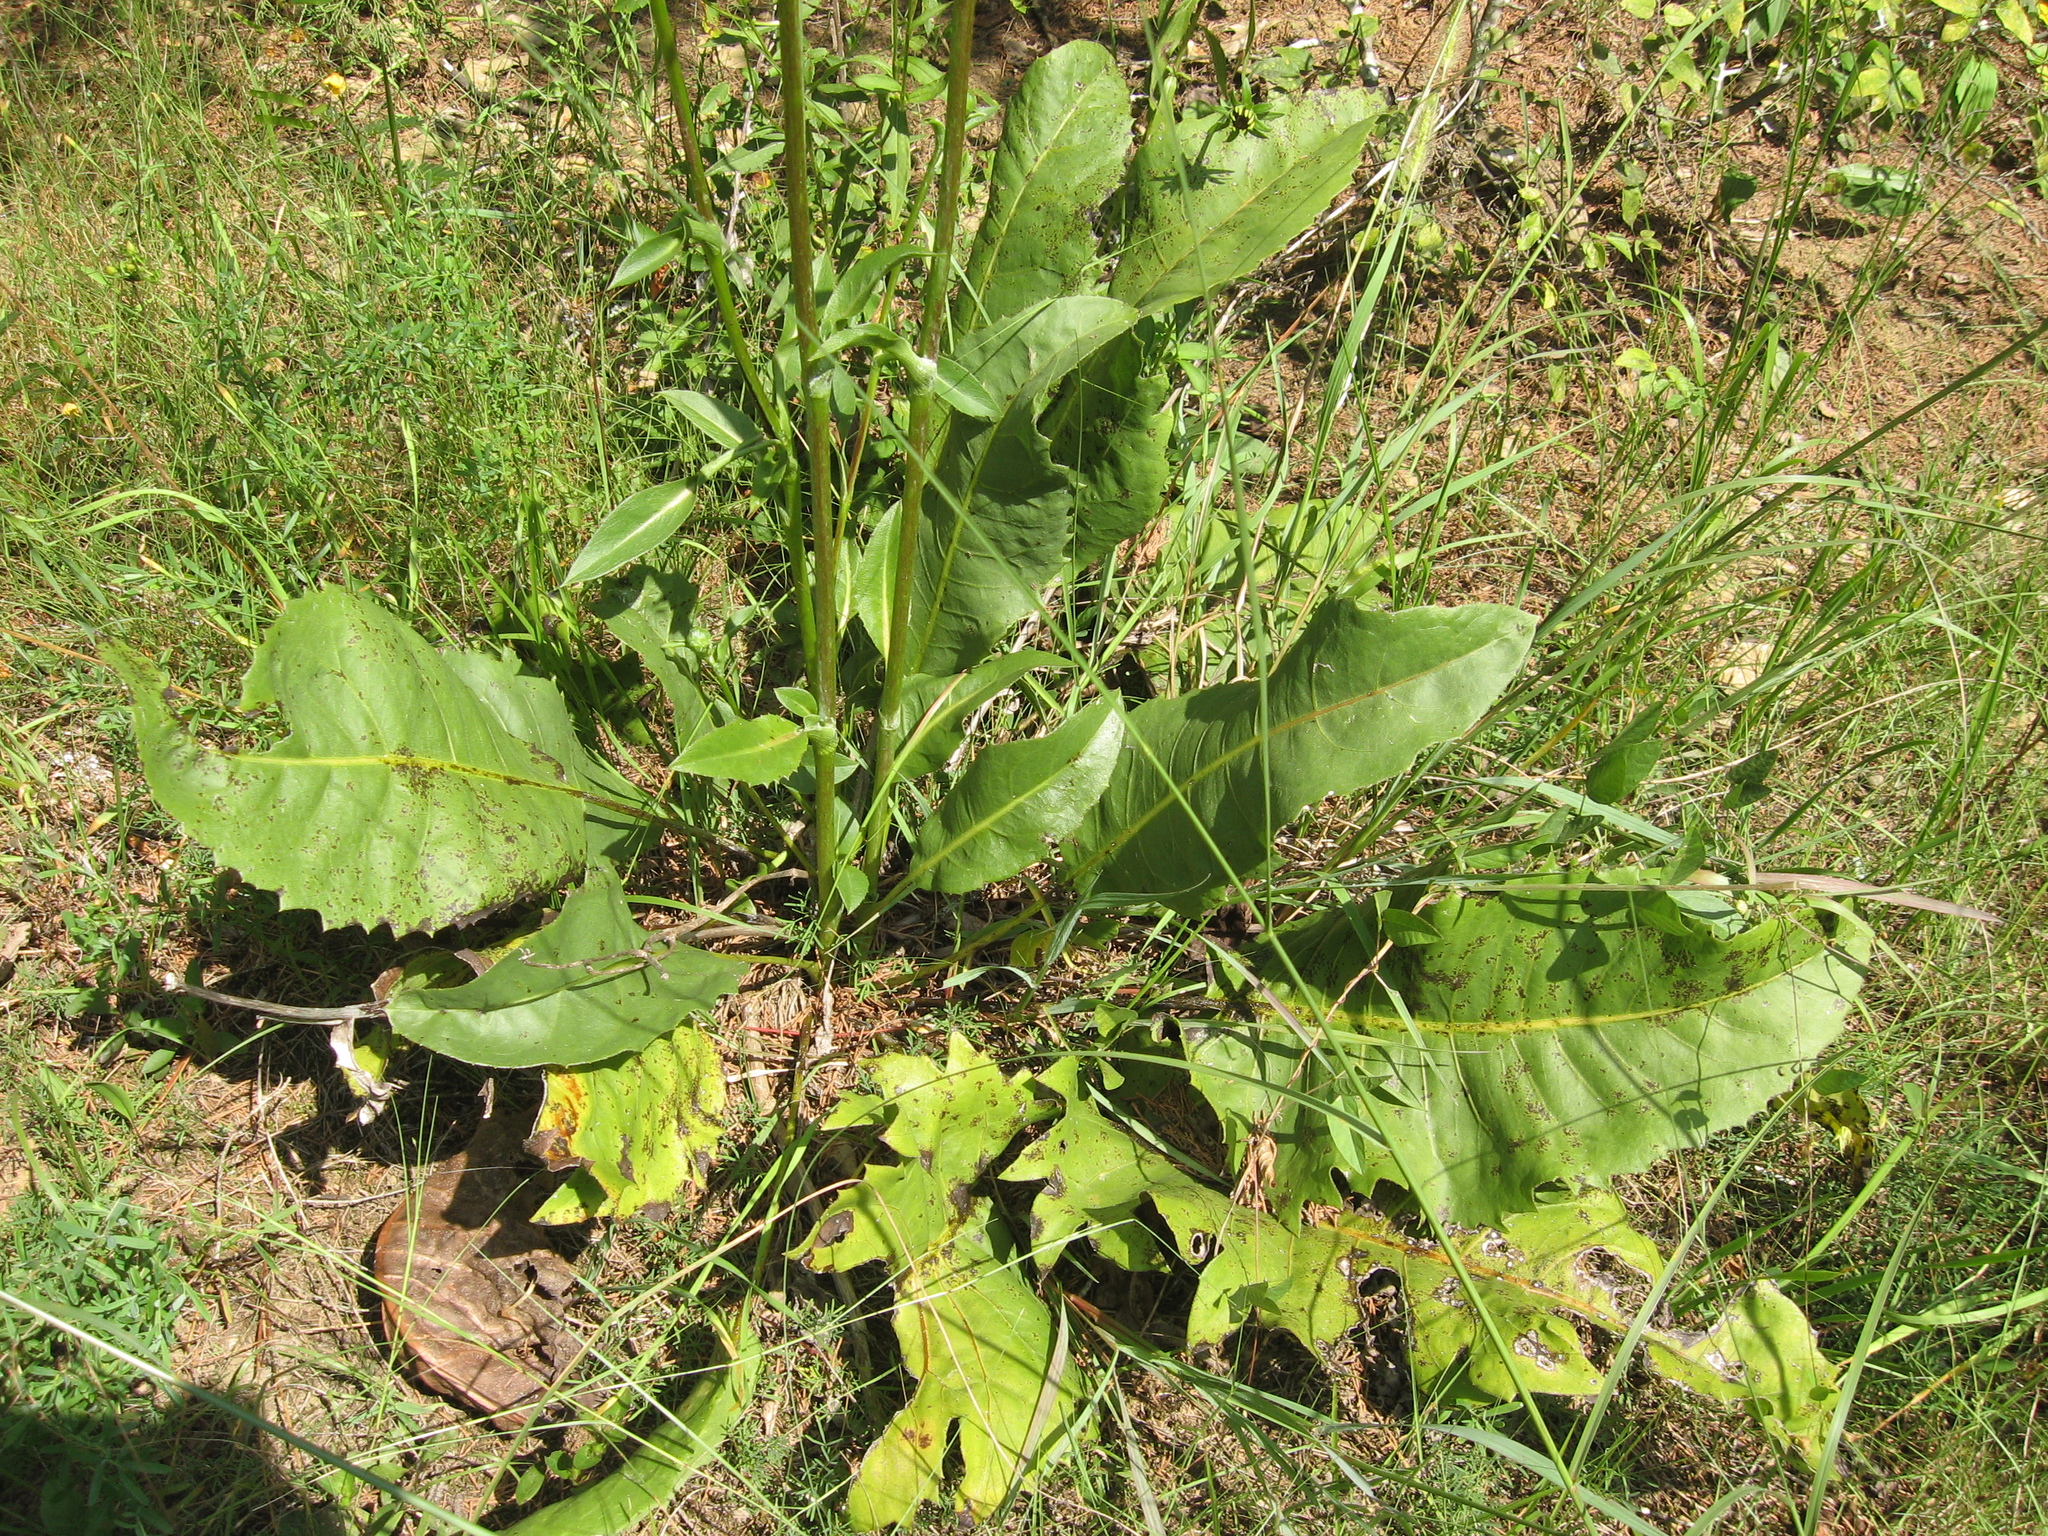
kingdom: Plantae
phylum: Tracheophyta
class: Magnoliopsida
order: Asterales
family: Asteraceae
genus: Silphium
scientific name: Silphium pinnatifidum
